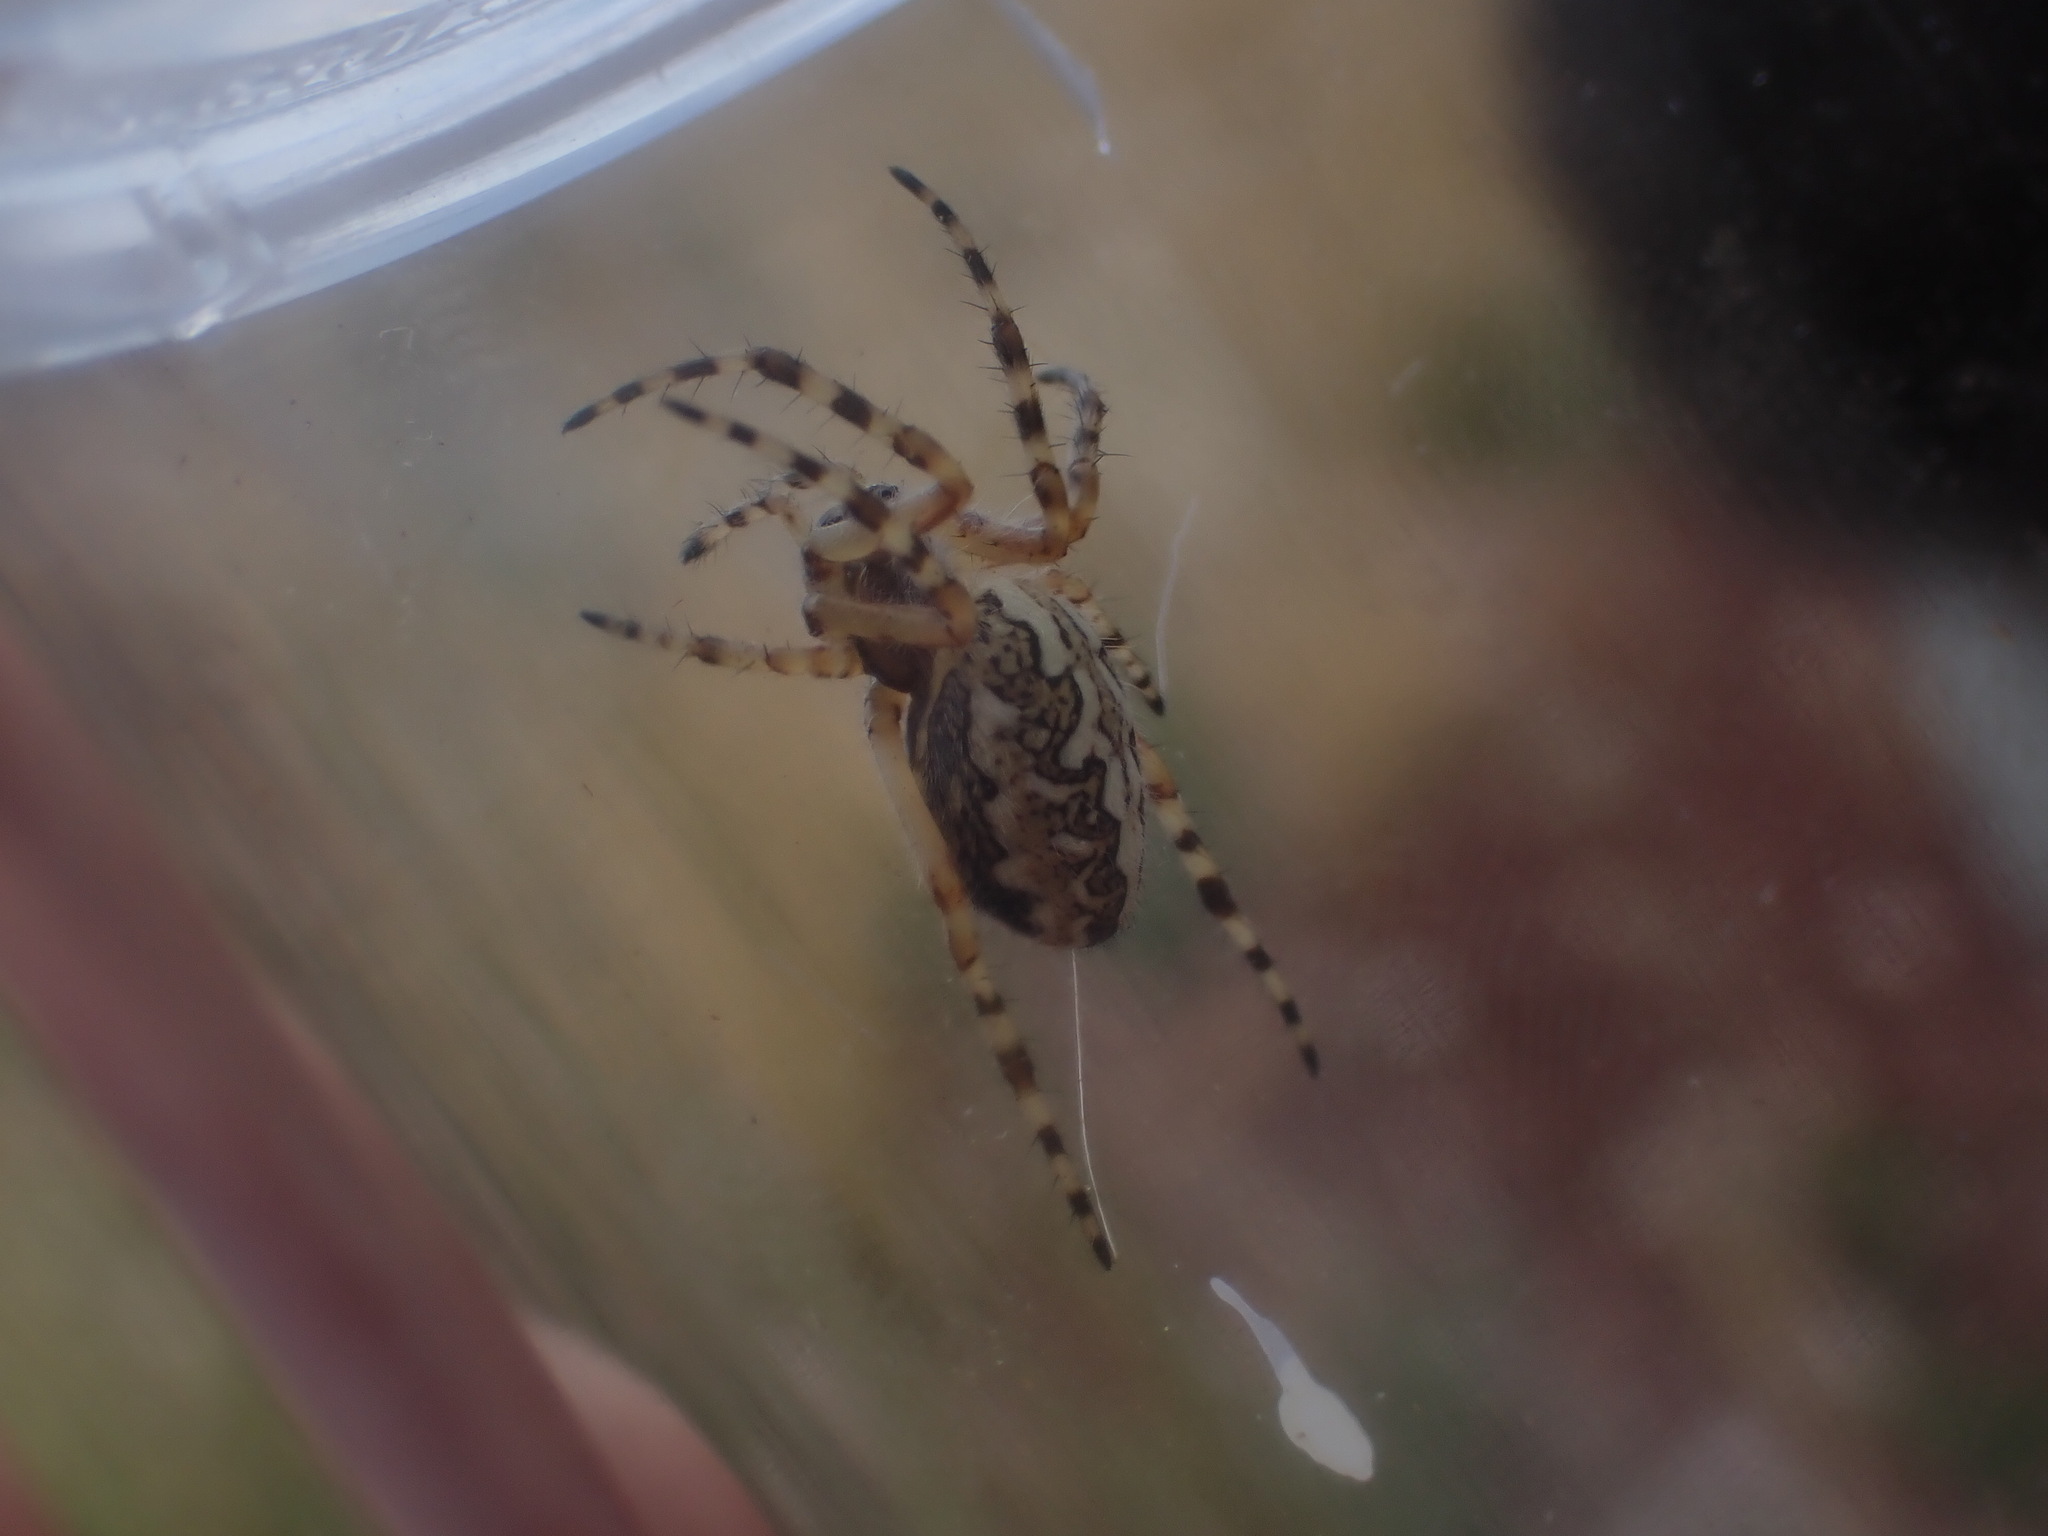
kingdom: Animalia
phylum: Arthropoda
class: Arachnida
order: Araneae
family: Araneidae
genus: Aculepeira
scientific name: Aculepeira ceropegia
